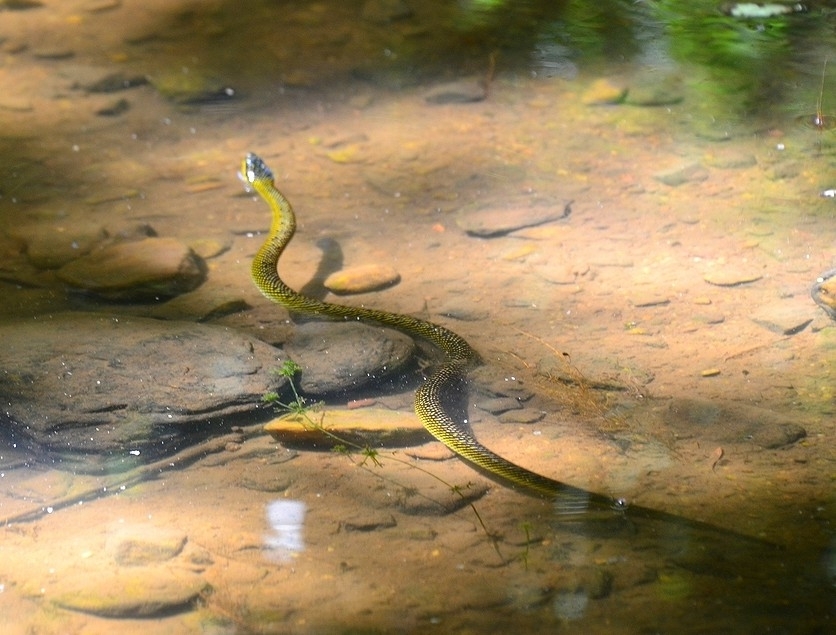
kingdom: Animalia
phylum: Chordata
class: Squamata
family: Colubridae
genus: Erythrolamprus
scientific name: Erythrolamprus poecilogyrus
